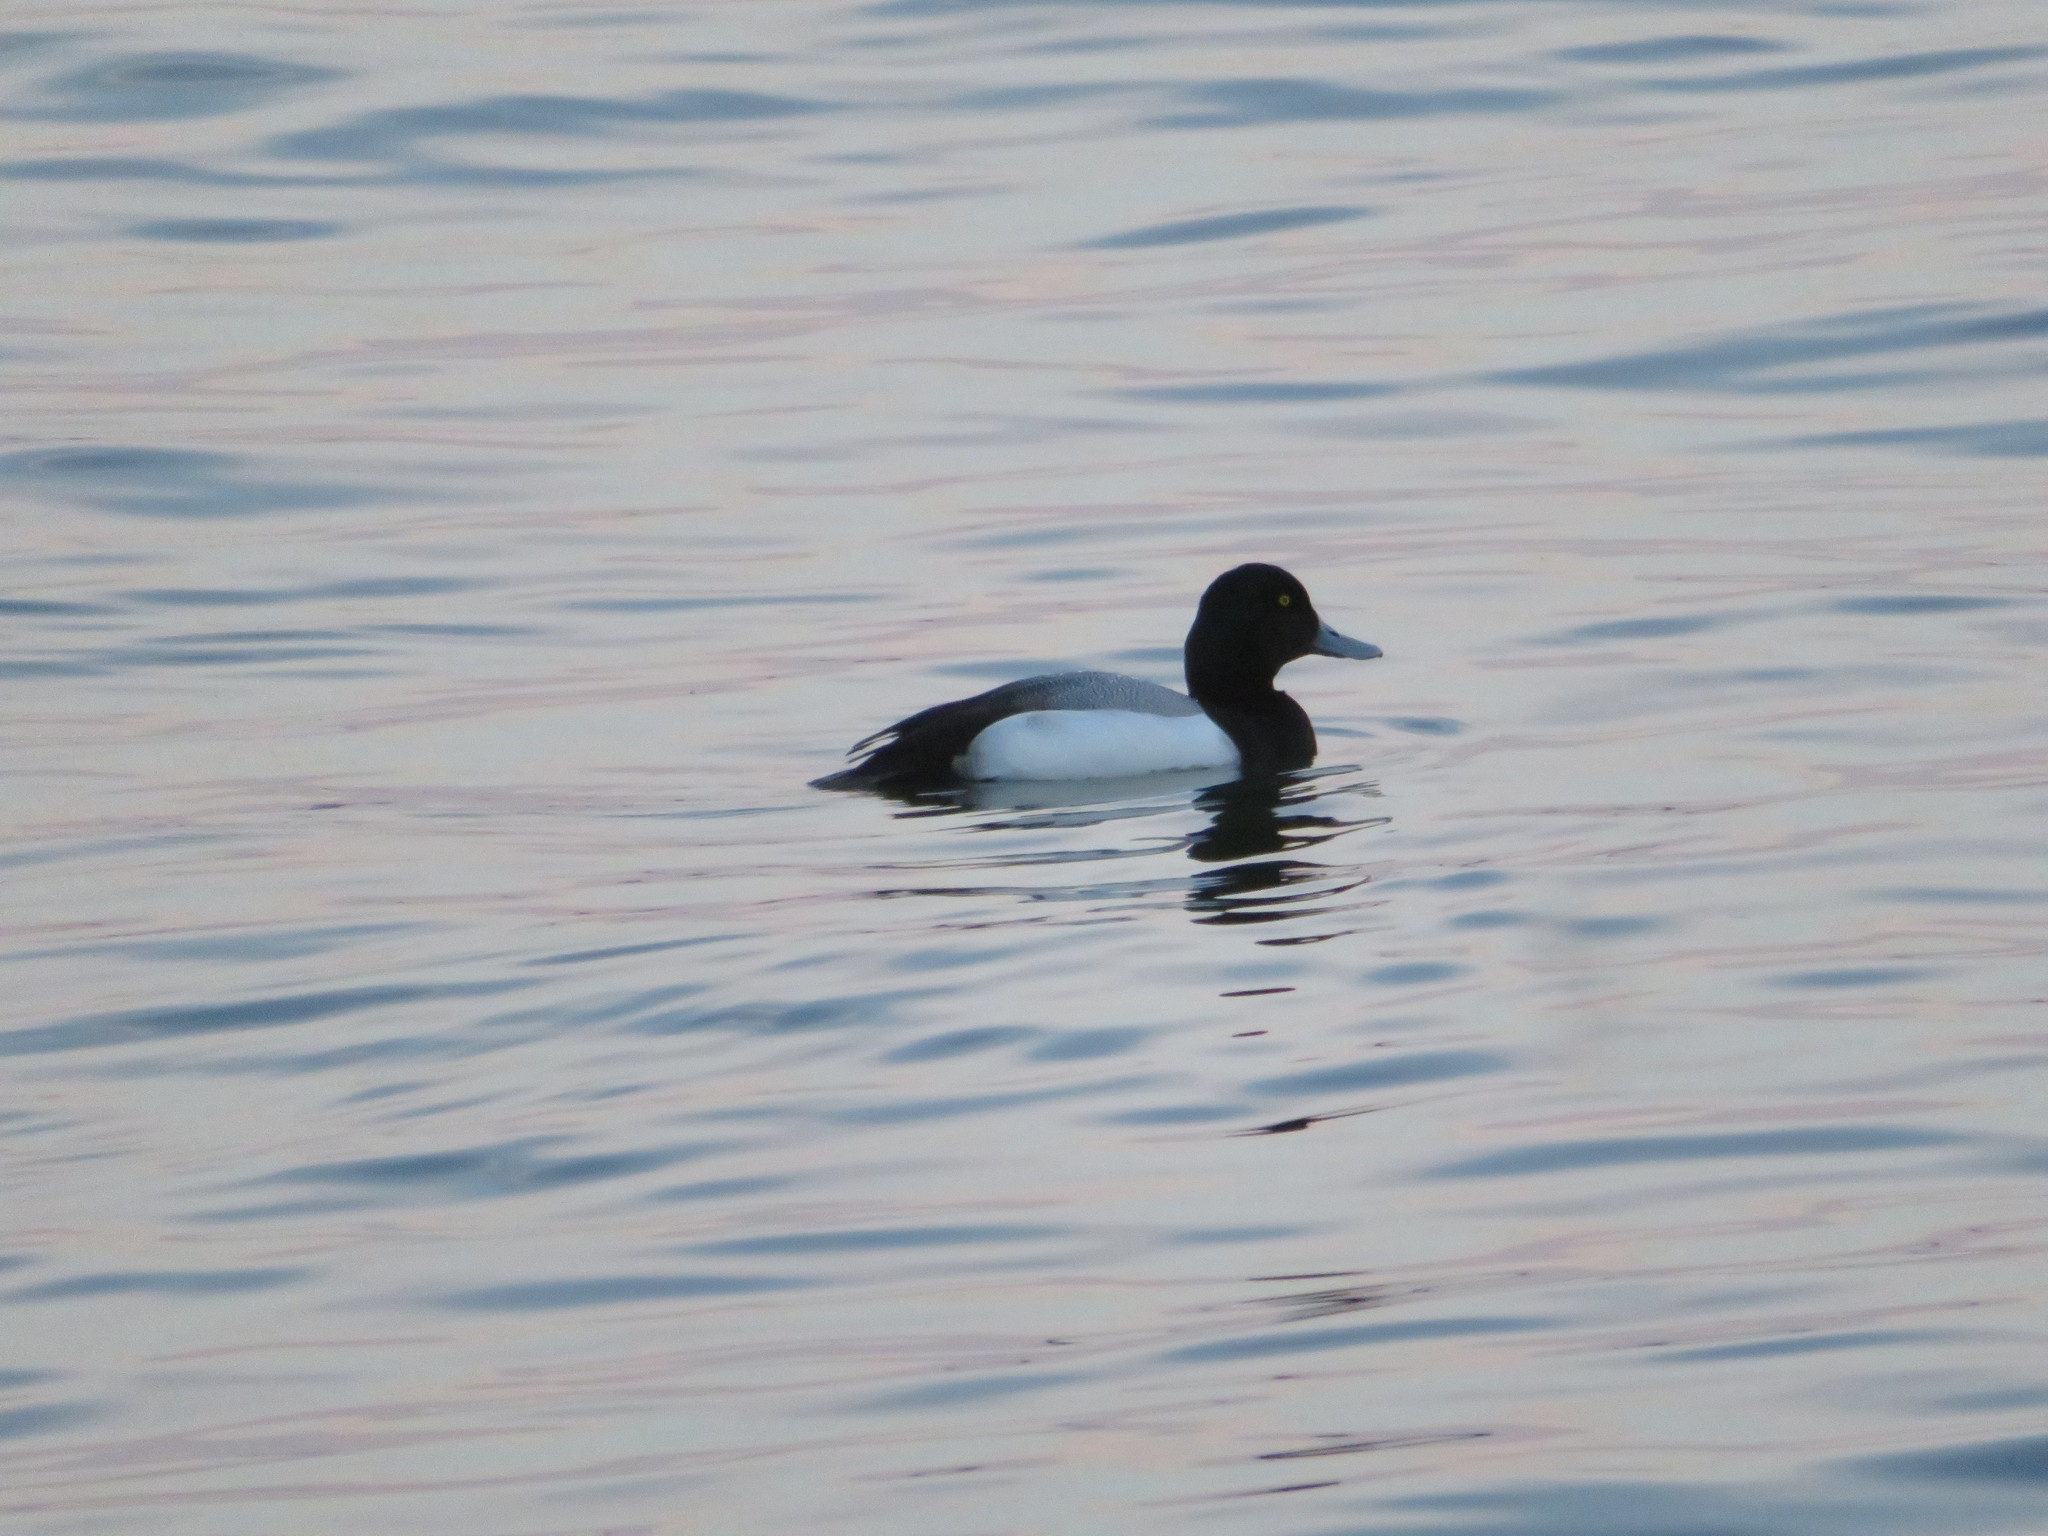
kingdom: Animalia
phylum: Chordata
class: Aves
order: Anseriformes
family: Anatidae
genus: Aythya
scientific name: Aythya marila
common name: Greater scaup
